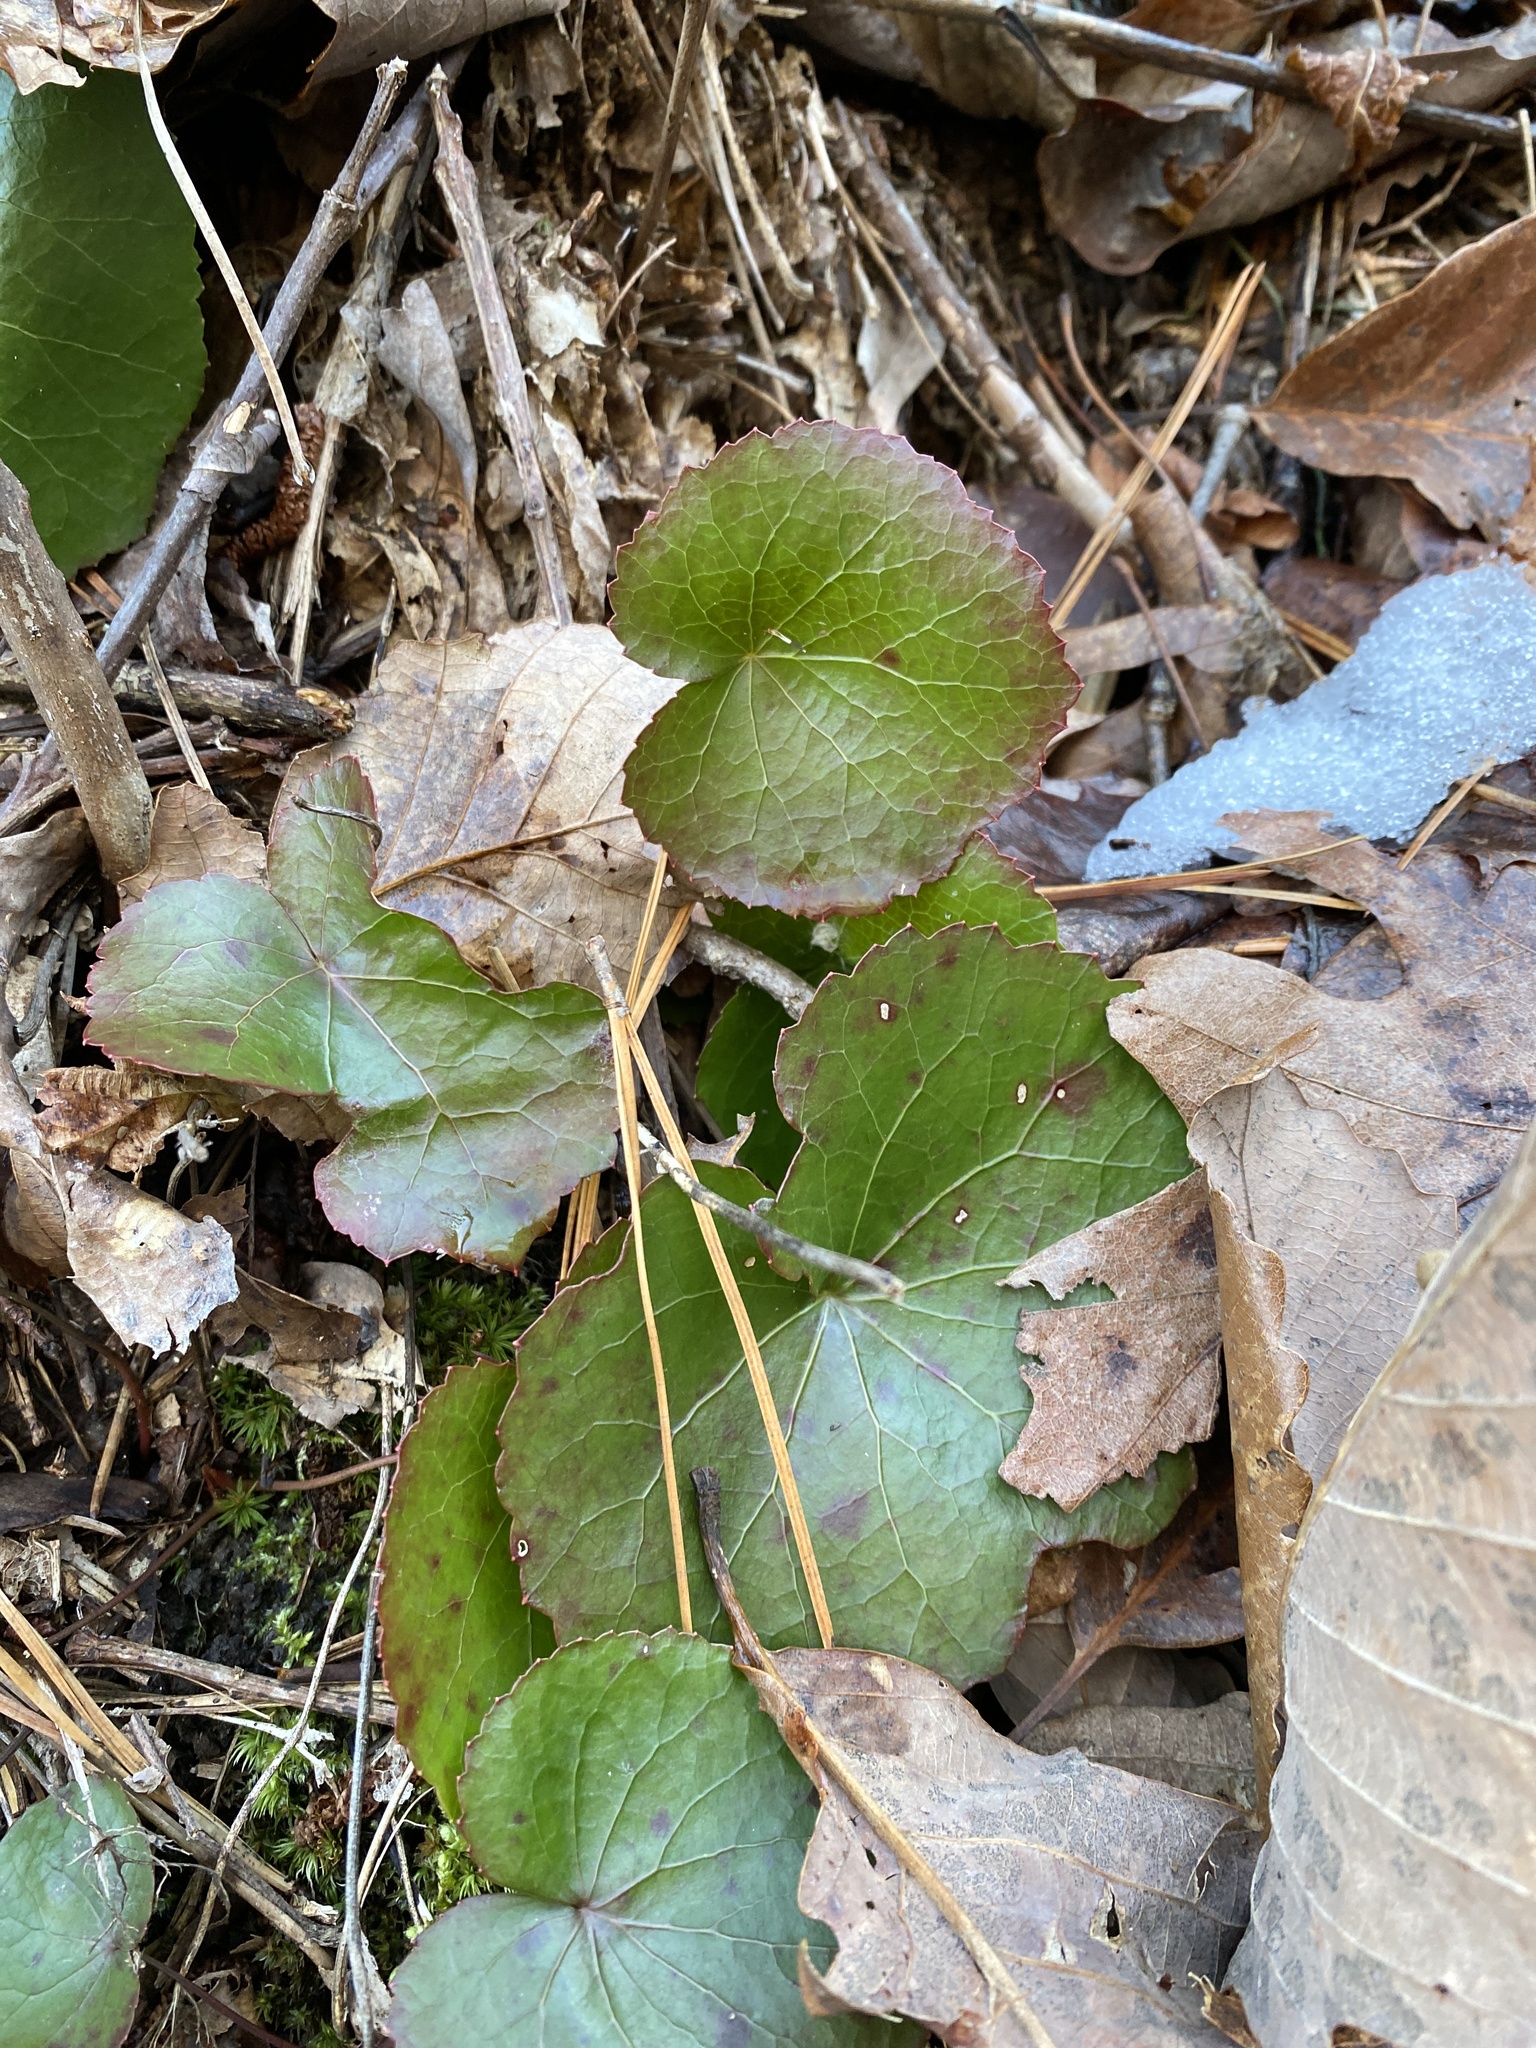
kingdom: Plantae
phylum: Tracheophyta
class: Magnoliopsida
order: Ericales
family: Diapensiaceae
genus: Galax
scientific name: Galax urceolata
